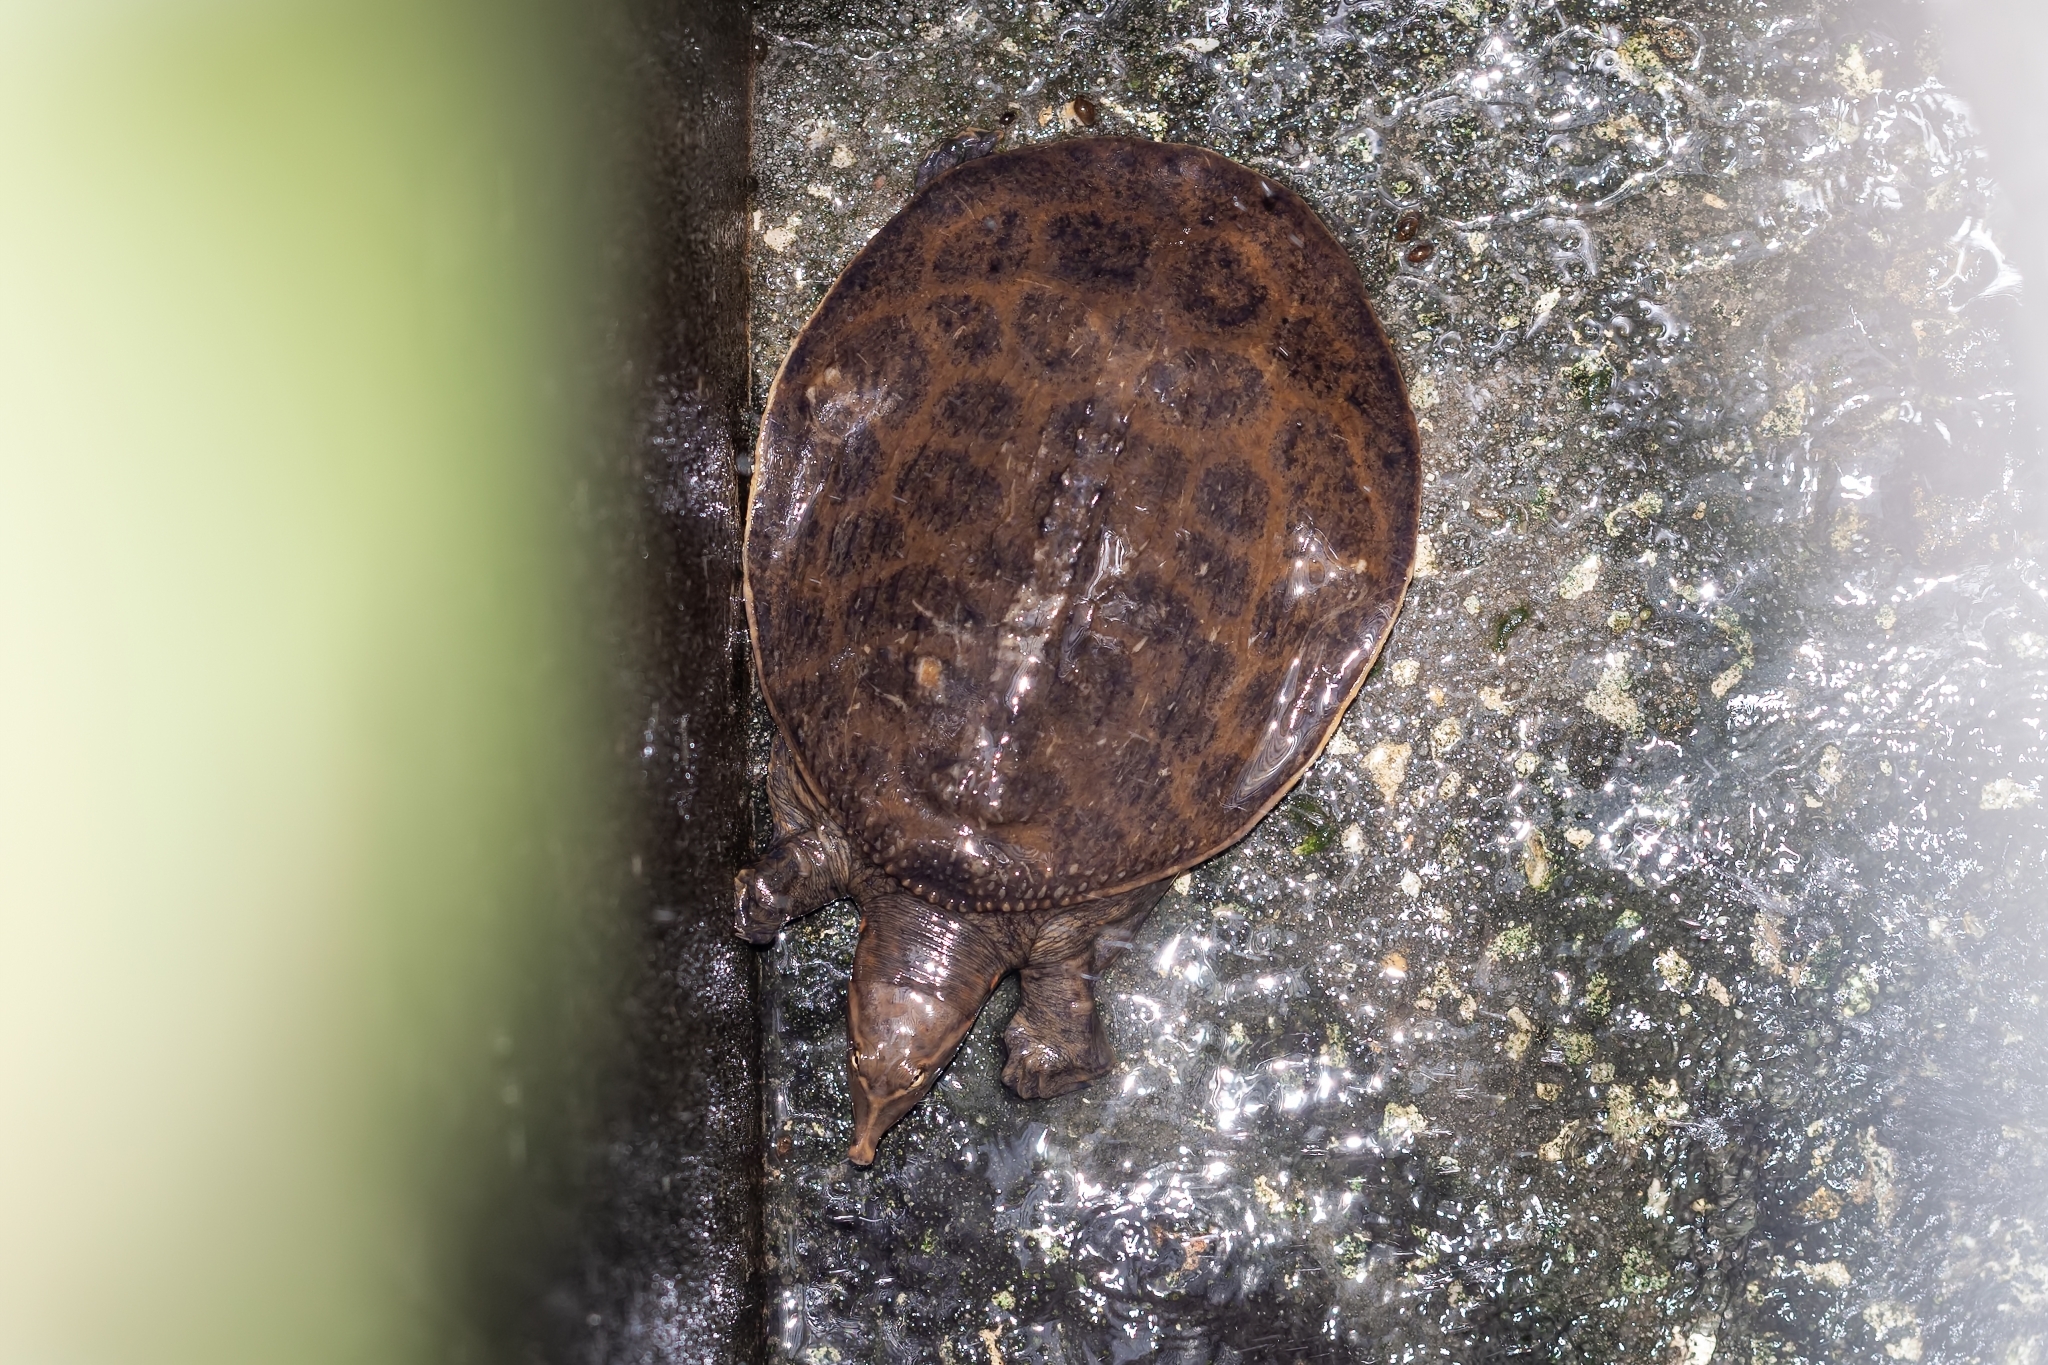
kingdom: Animalia
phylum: Chordata
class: Testudines
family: Trionychidae
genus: Apalone
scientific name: Apalone ferox
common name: Florida softshell turtle
